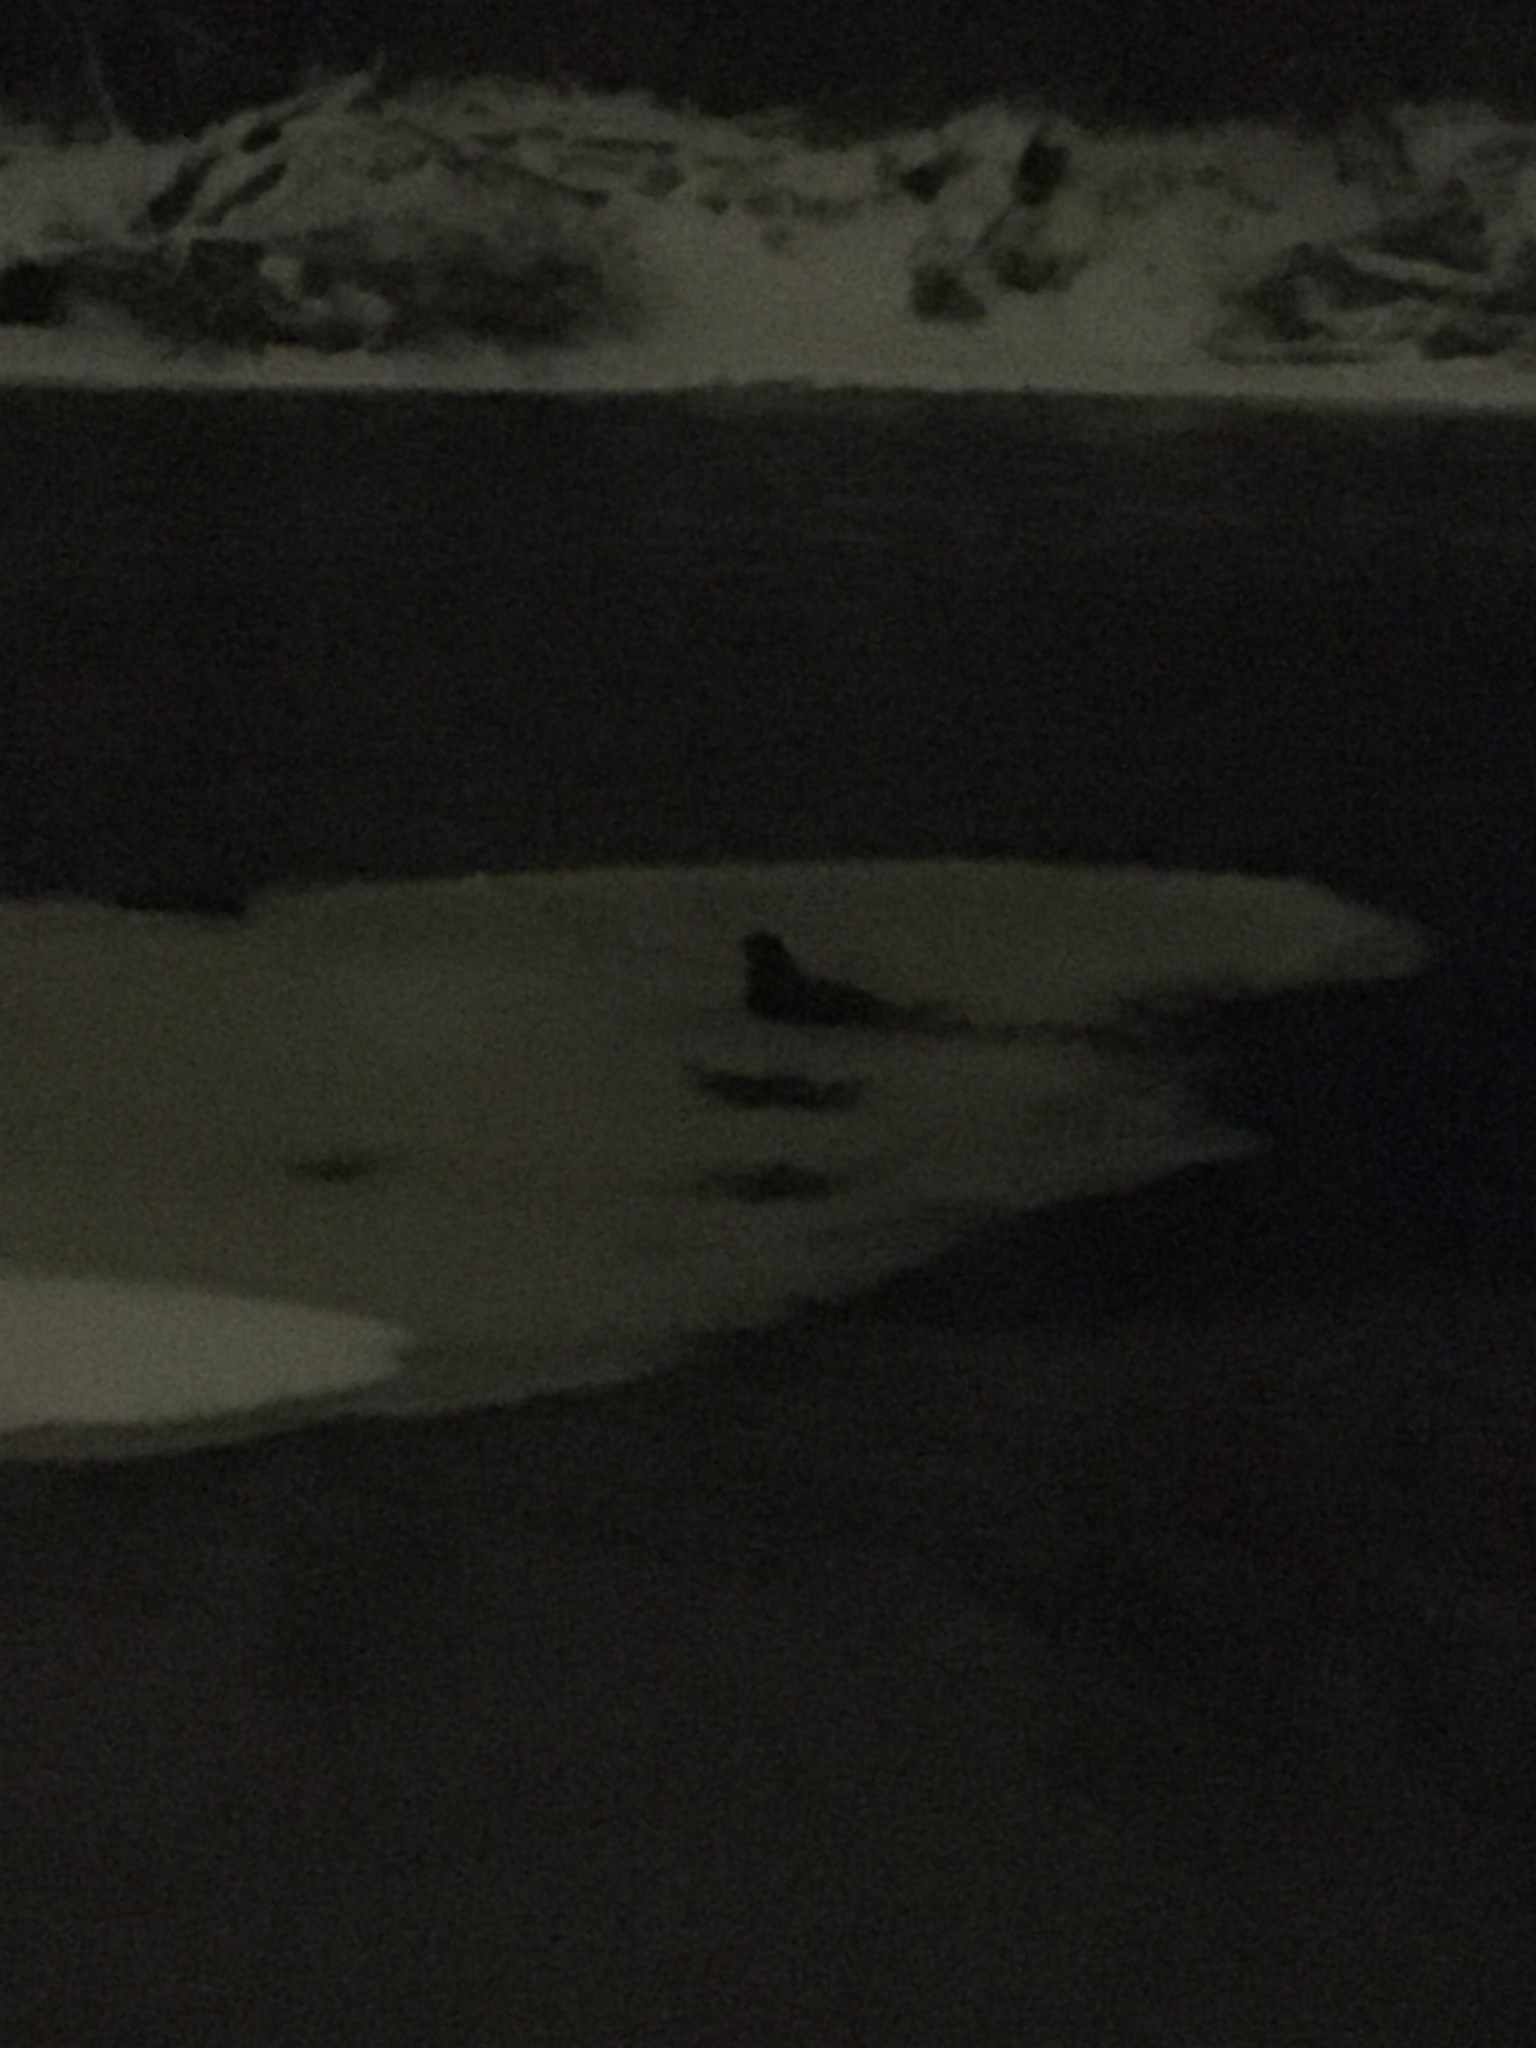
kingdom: Animalia
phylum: Chordata
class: Mammalia
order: Carnivora
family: Mustelidae
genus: Lontra
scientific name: Lontra canadensis
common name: North american river otter
